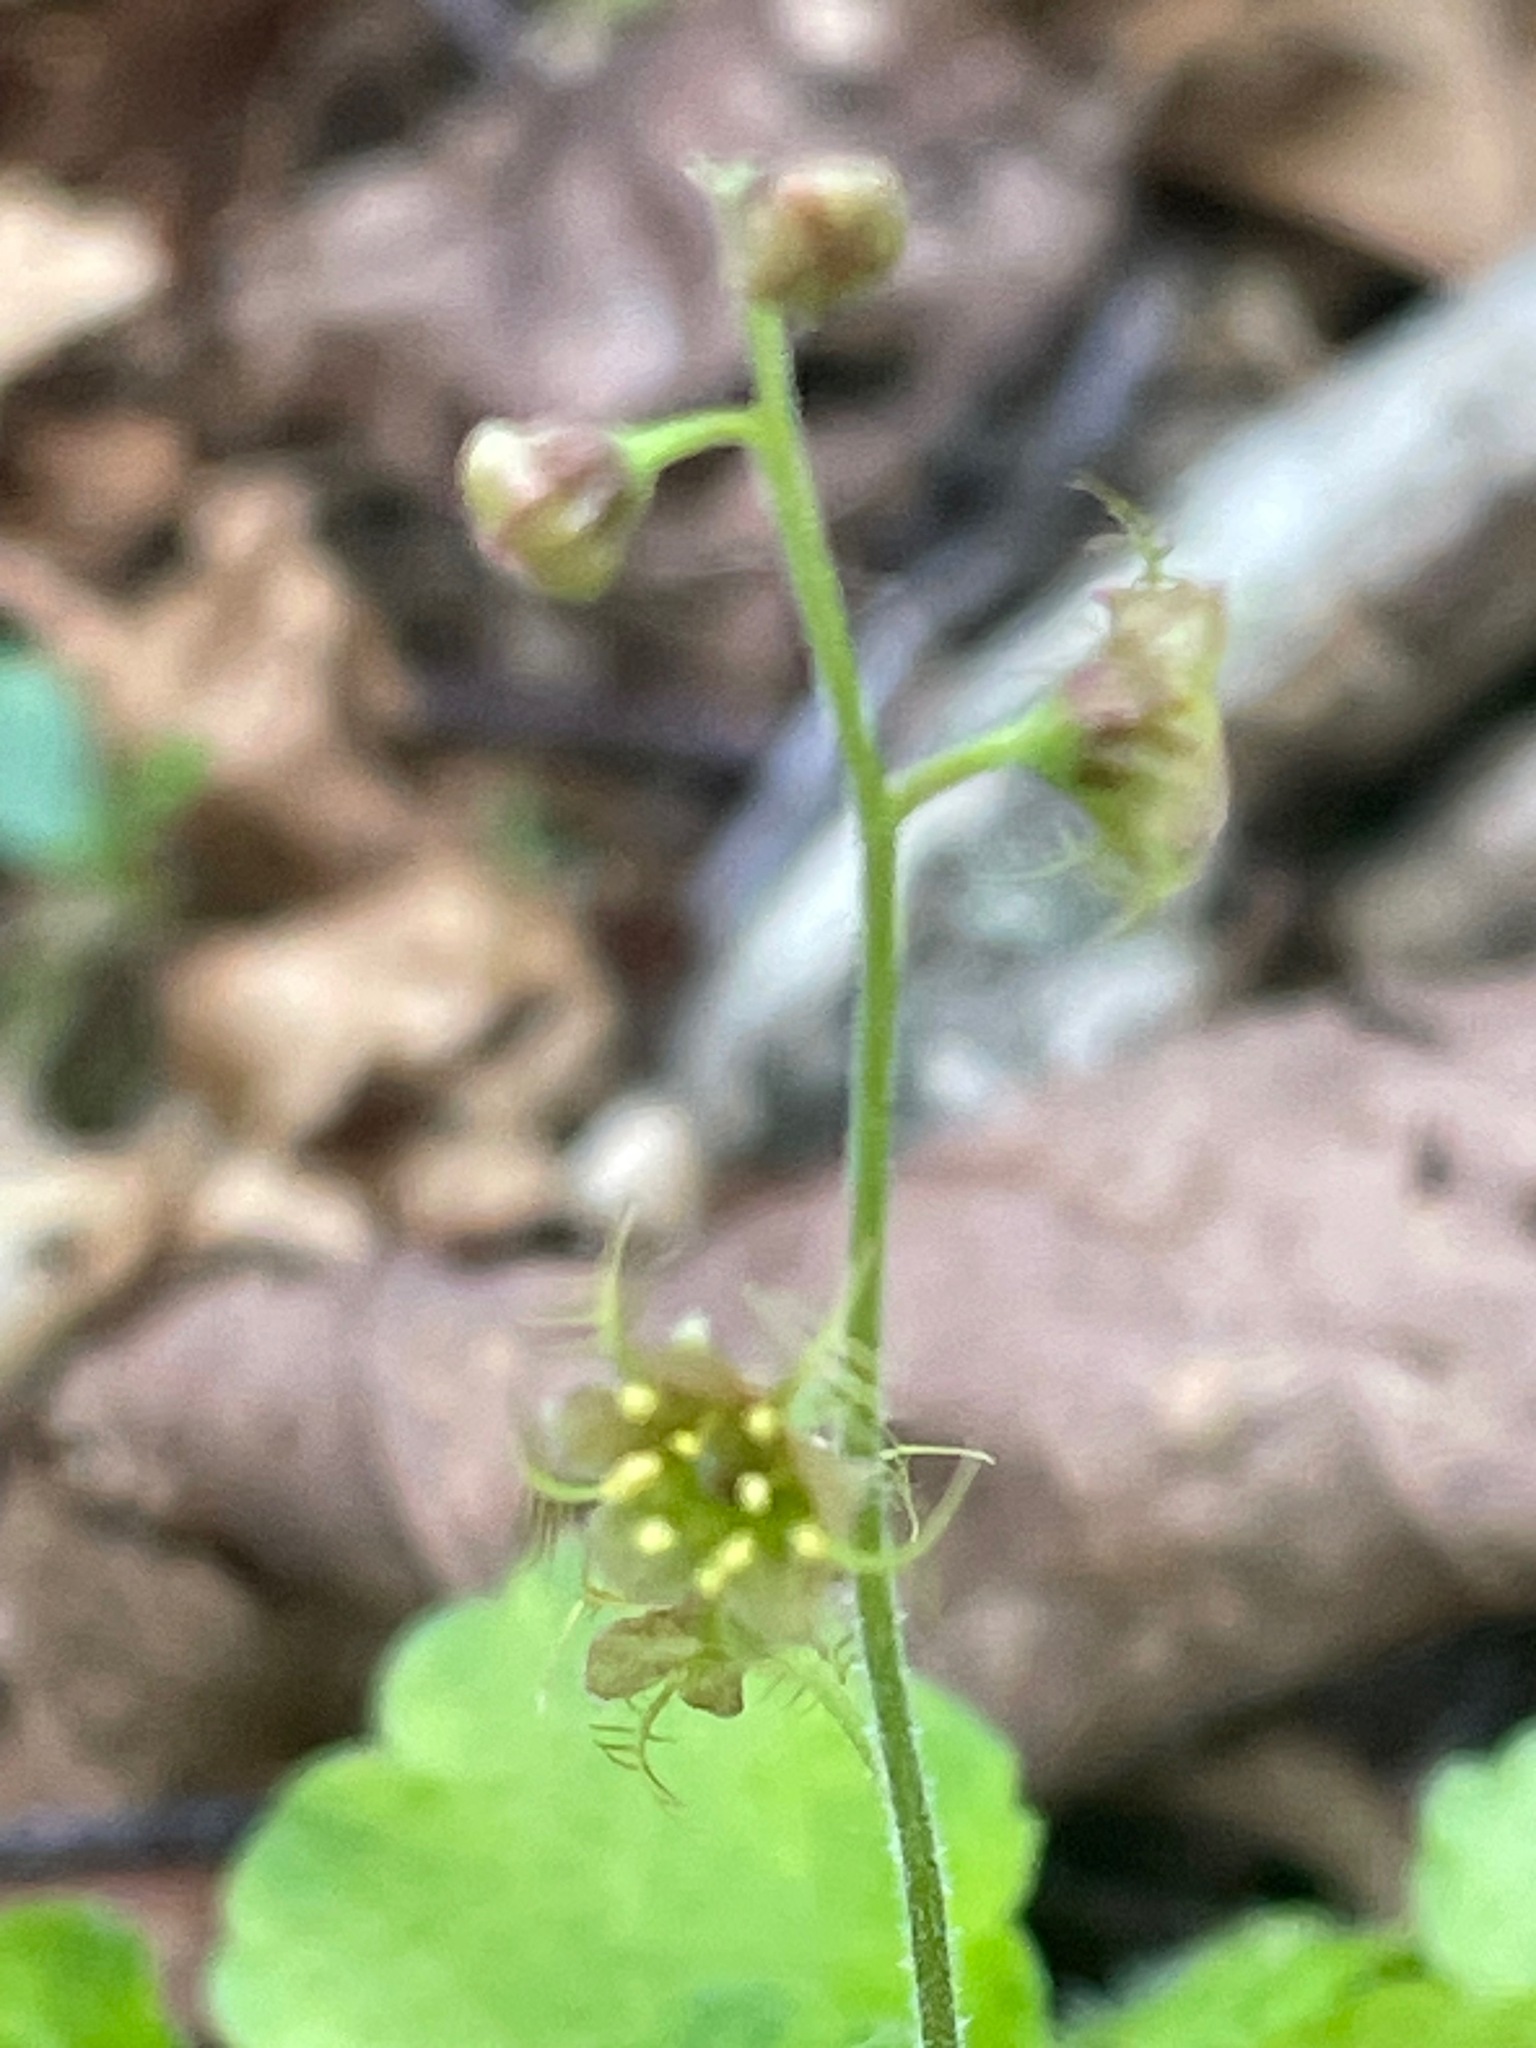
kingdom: Plantae
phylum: Tracheophyta
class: Magnoliopsida
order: Saxifragales
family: Saxifragaceae
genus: Mitella
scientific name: Mitella nuda
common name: Bare-stemmed bishop's-cap
